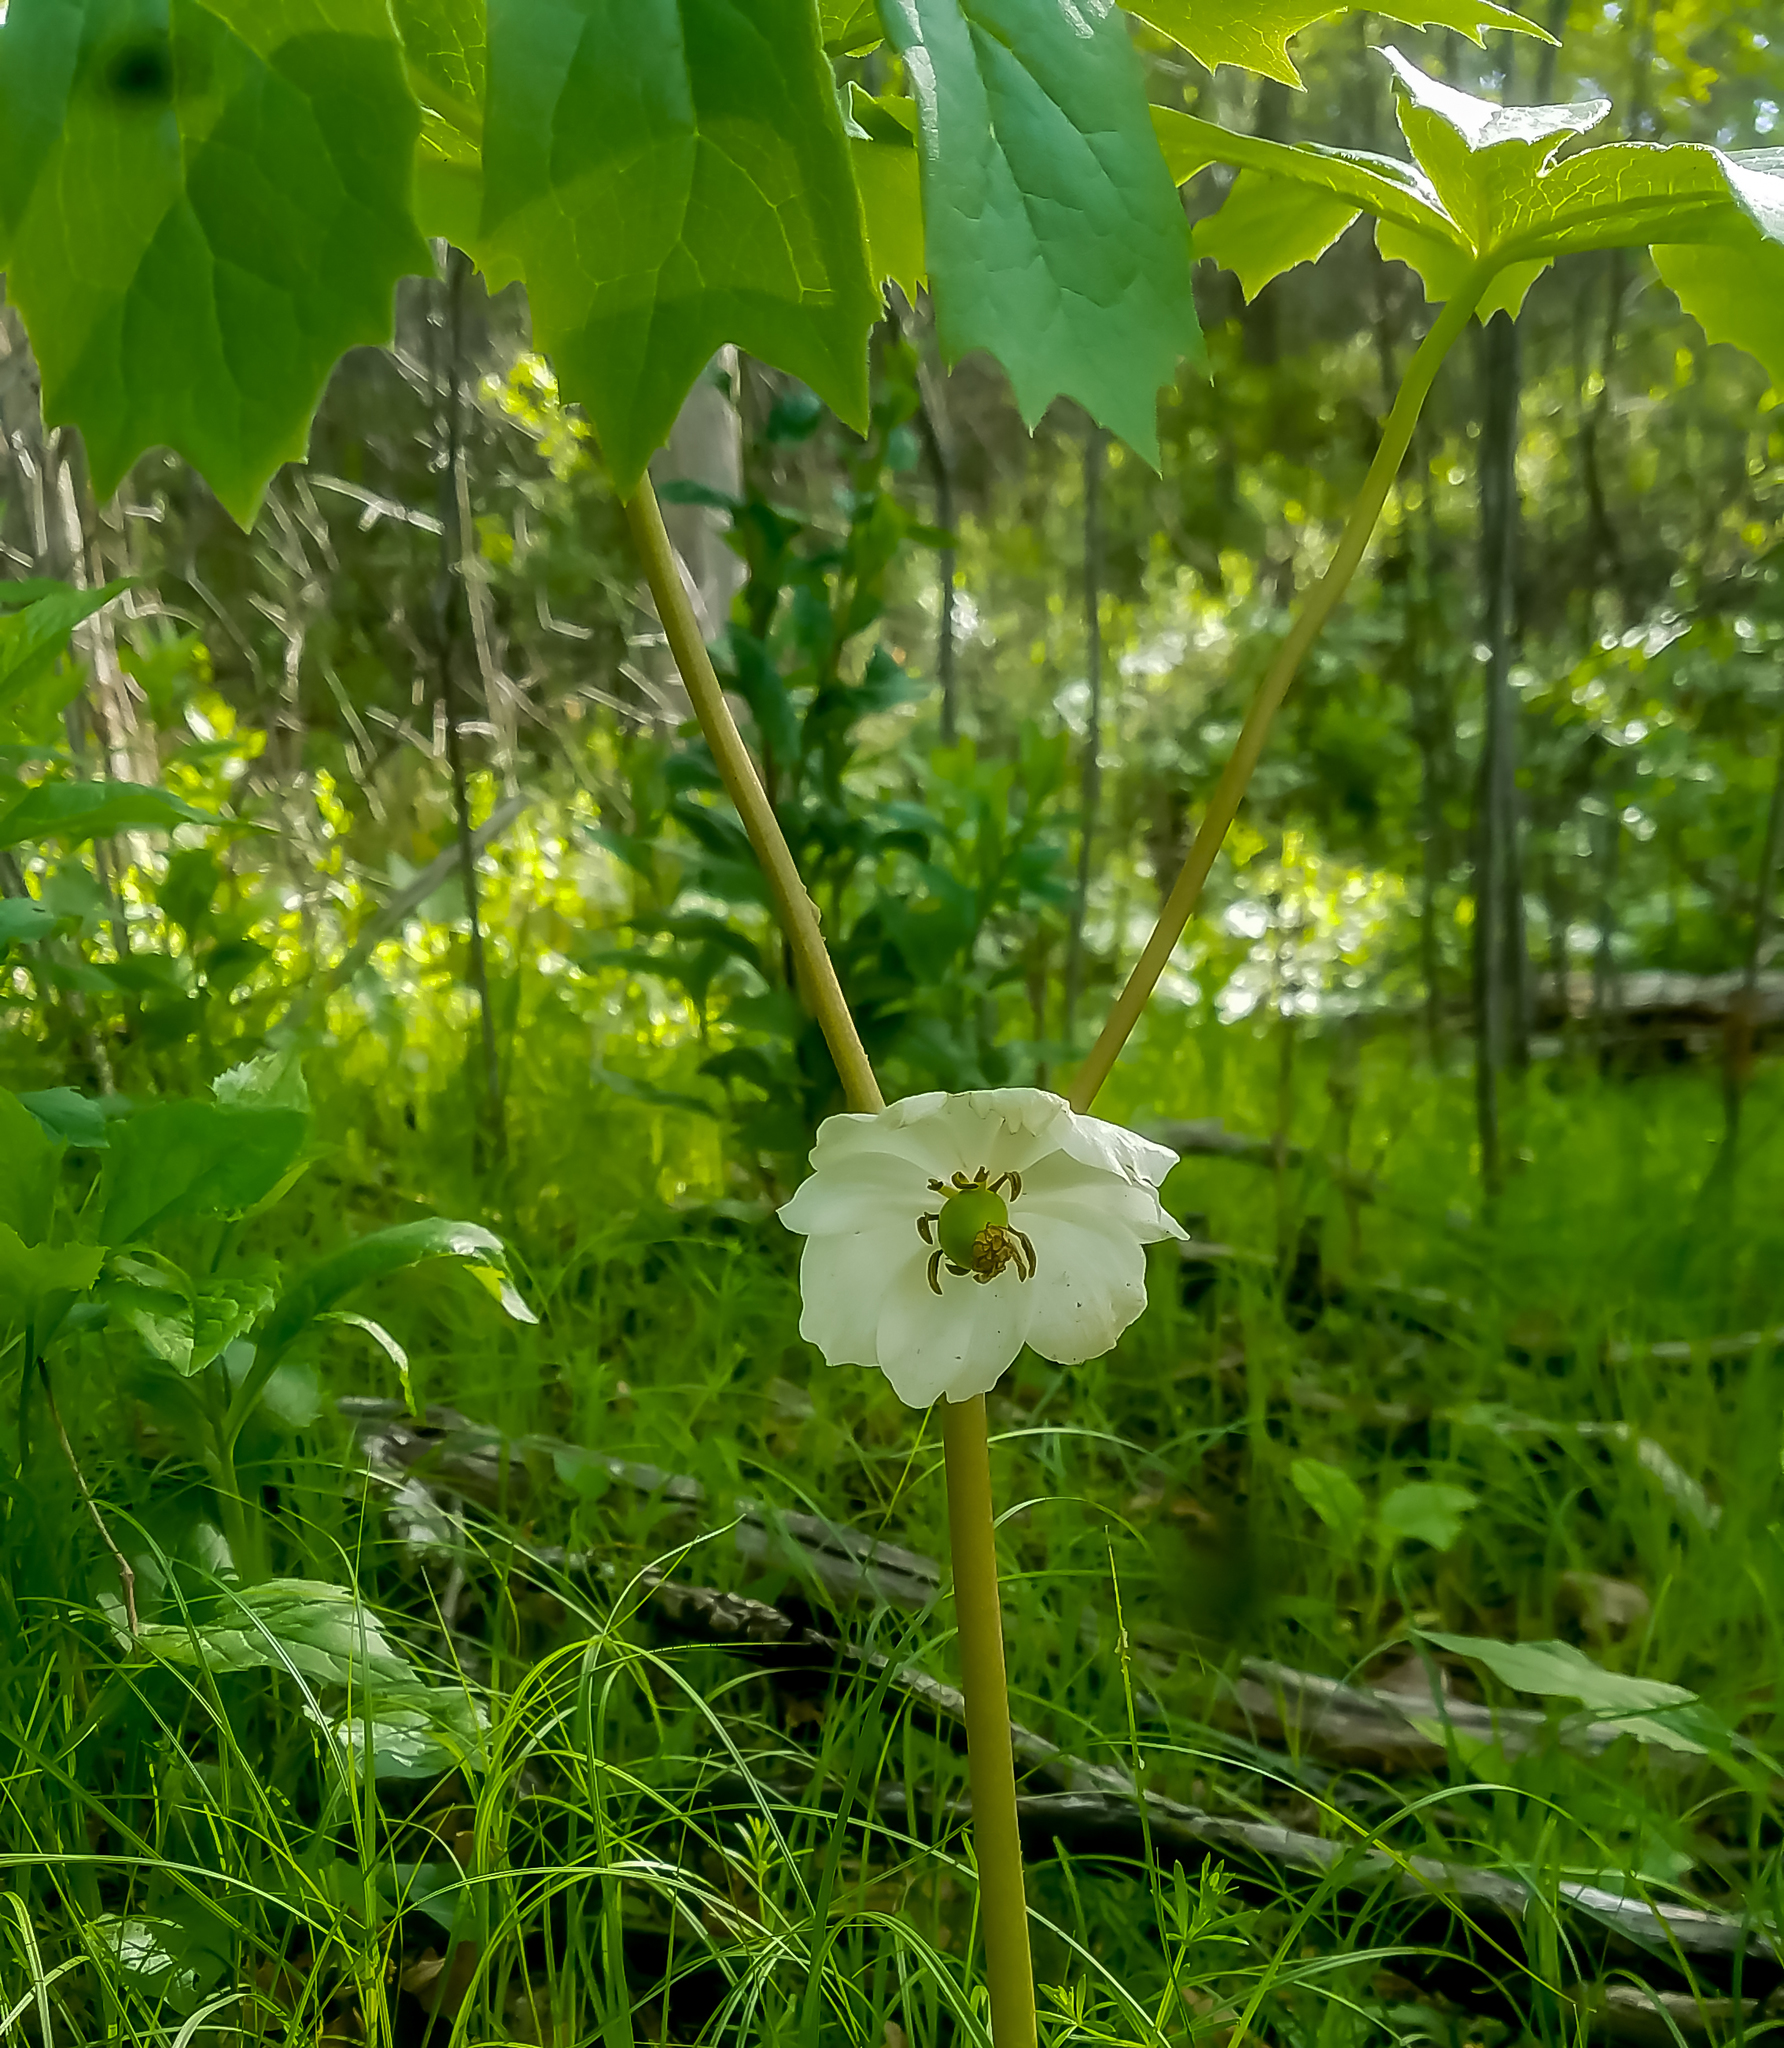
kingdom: Plantae
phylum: Tracheophyta
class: Magnoliopsida
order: Ranunculales
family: Berberidaceae
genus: Podophyllum
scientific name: Podophyllum peltatum
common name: Wild mandrake
